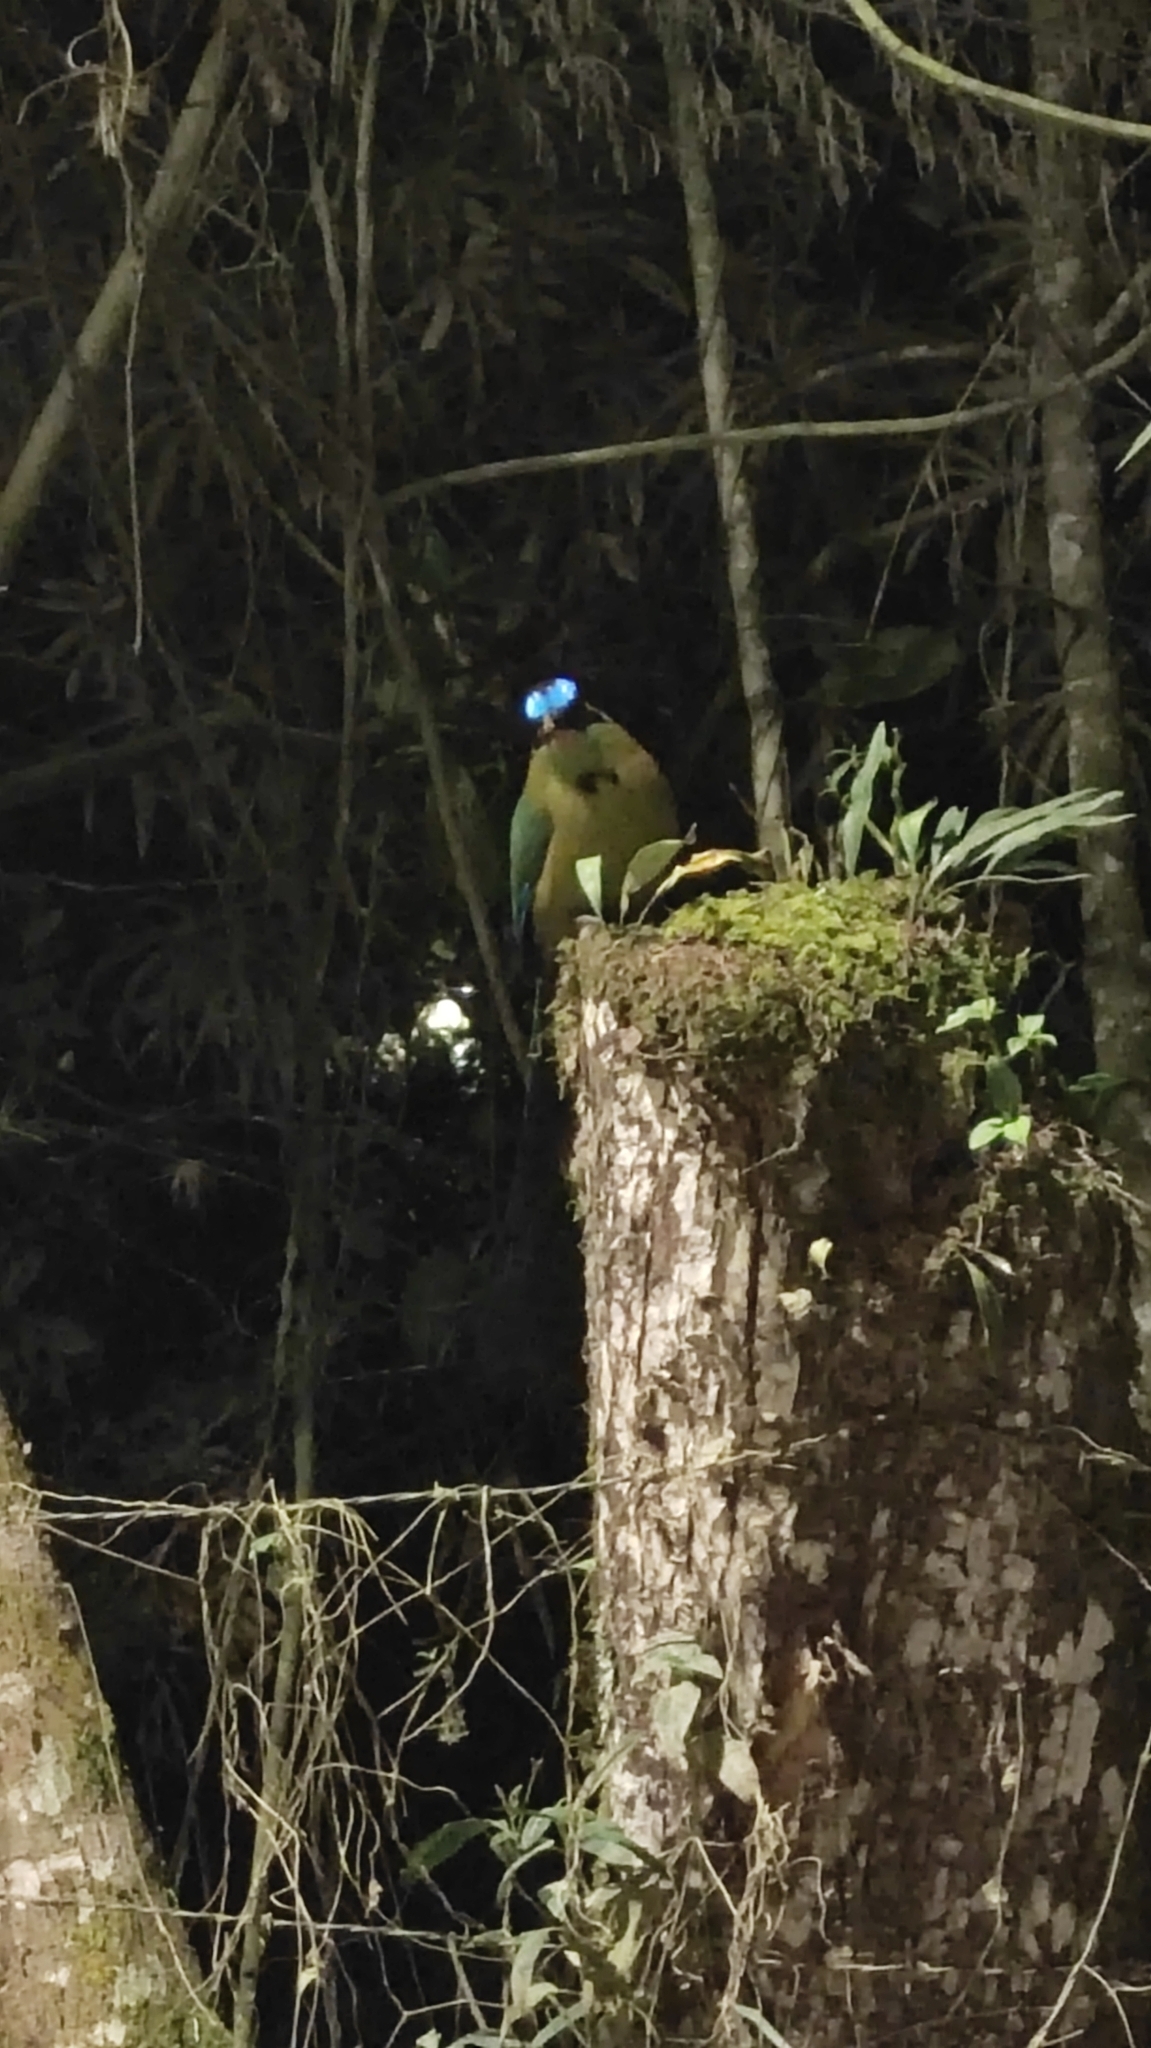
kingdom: Animalia
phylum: Chordata
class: Aves
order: Coraciiformes
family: Momotidae
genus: Momotus
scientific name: Momotus aequatorialis
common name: Andean motmot
